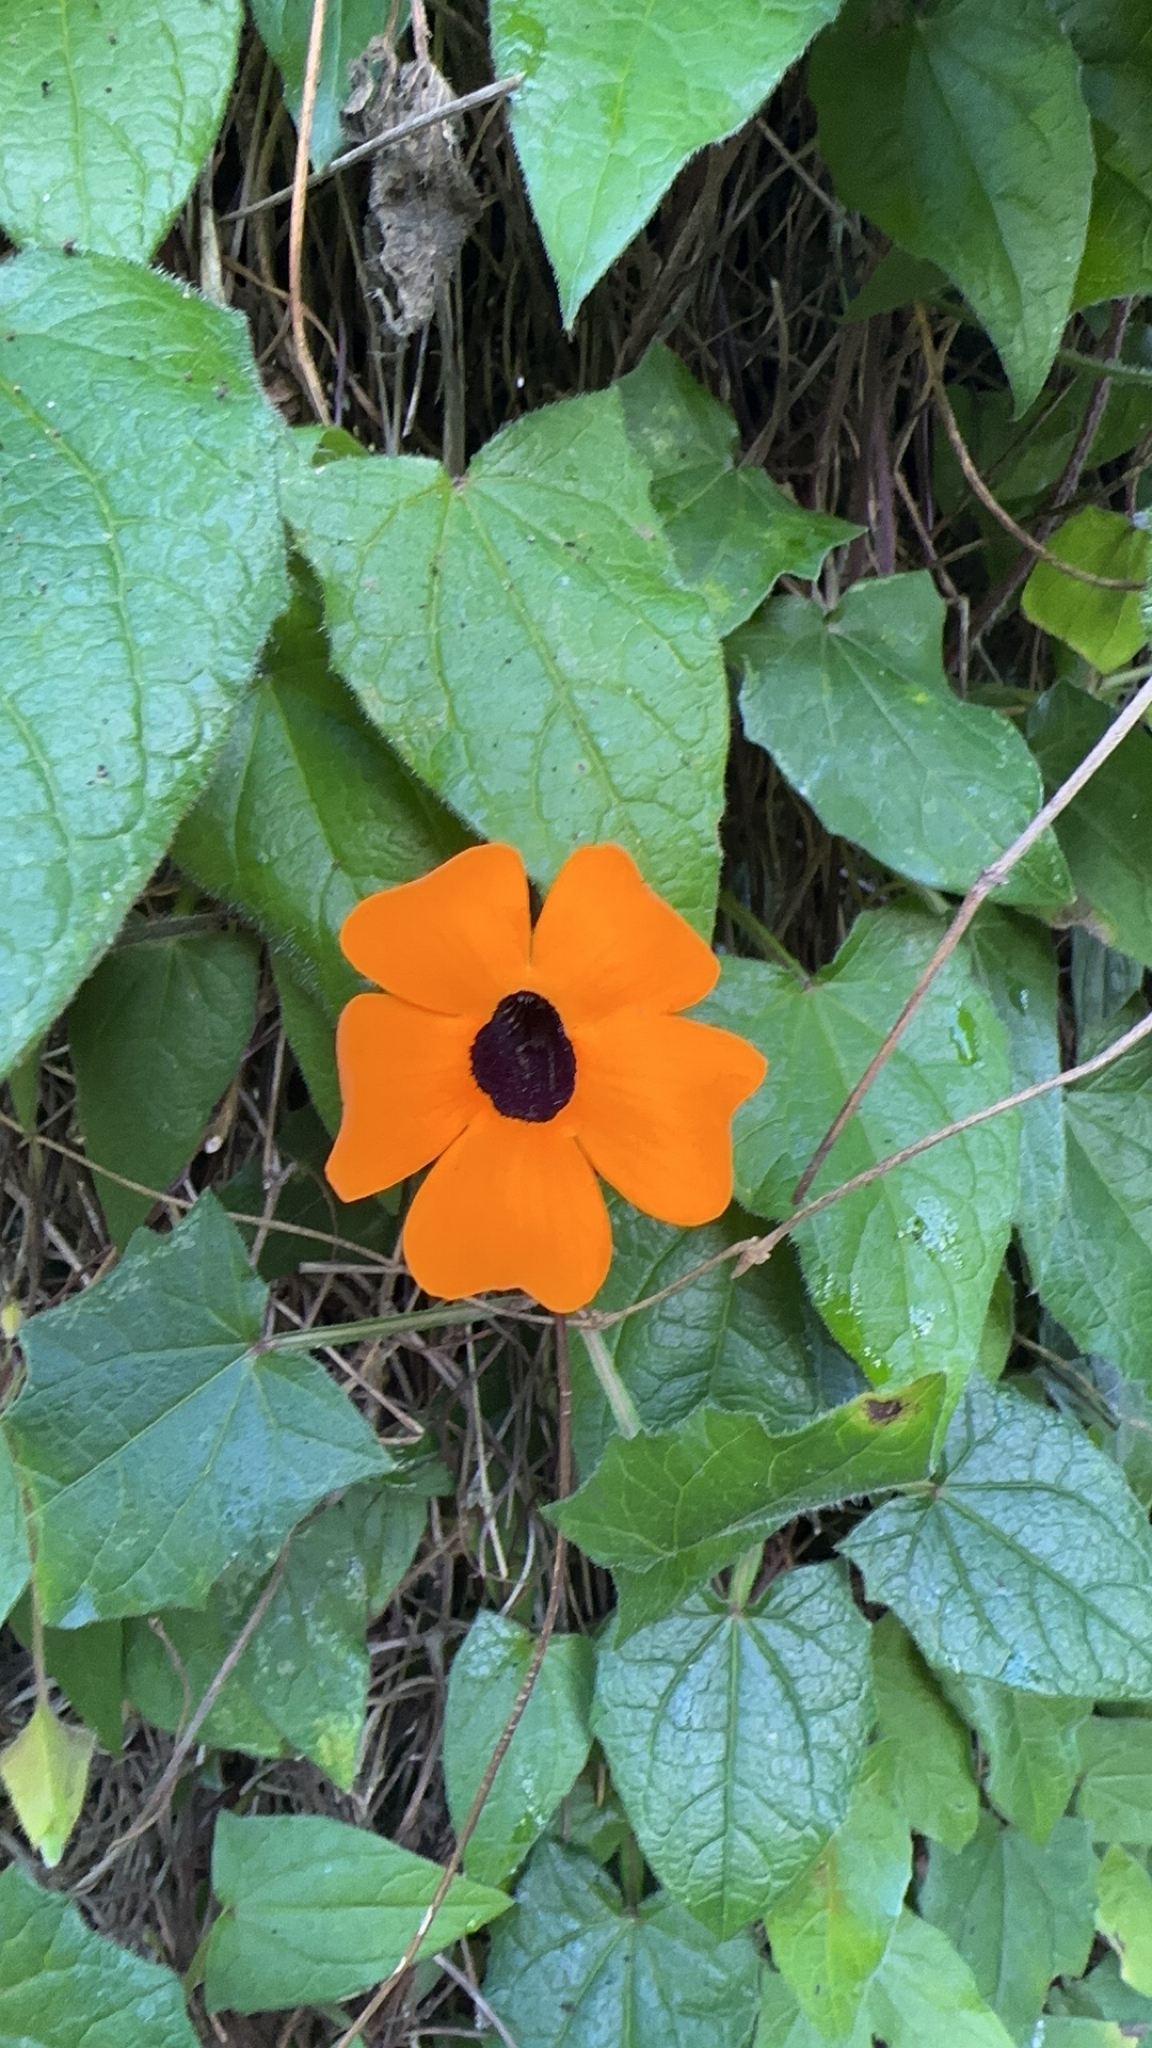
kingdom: Plantae
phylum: Tracheophyta
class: Magnoliopsida
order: Lamiales
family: Acanthaceae
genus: Thunbergia
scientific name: Thunbergia alata
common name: Blackeyed susan vine
